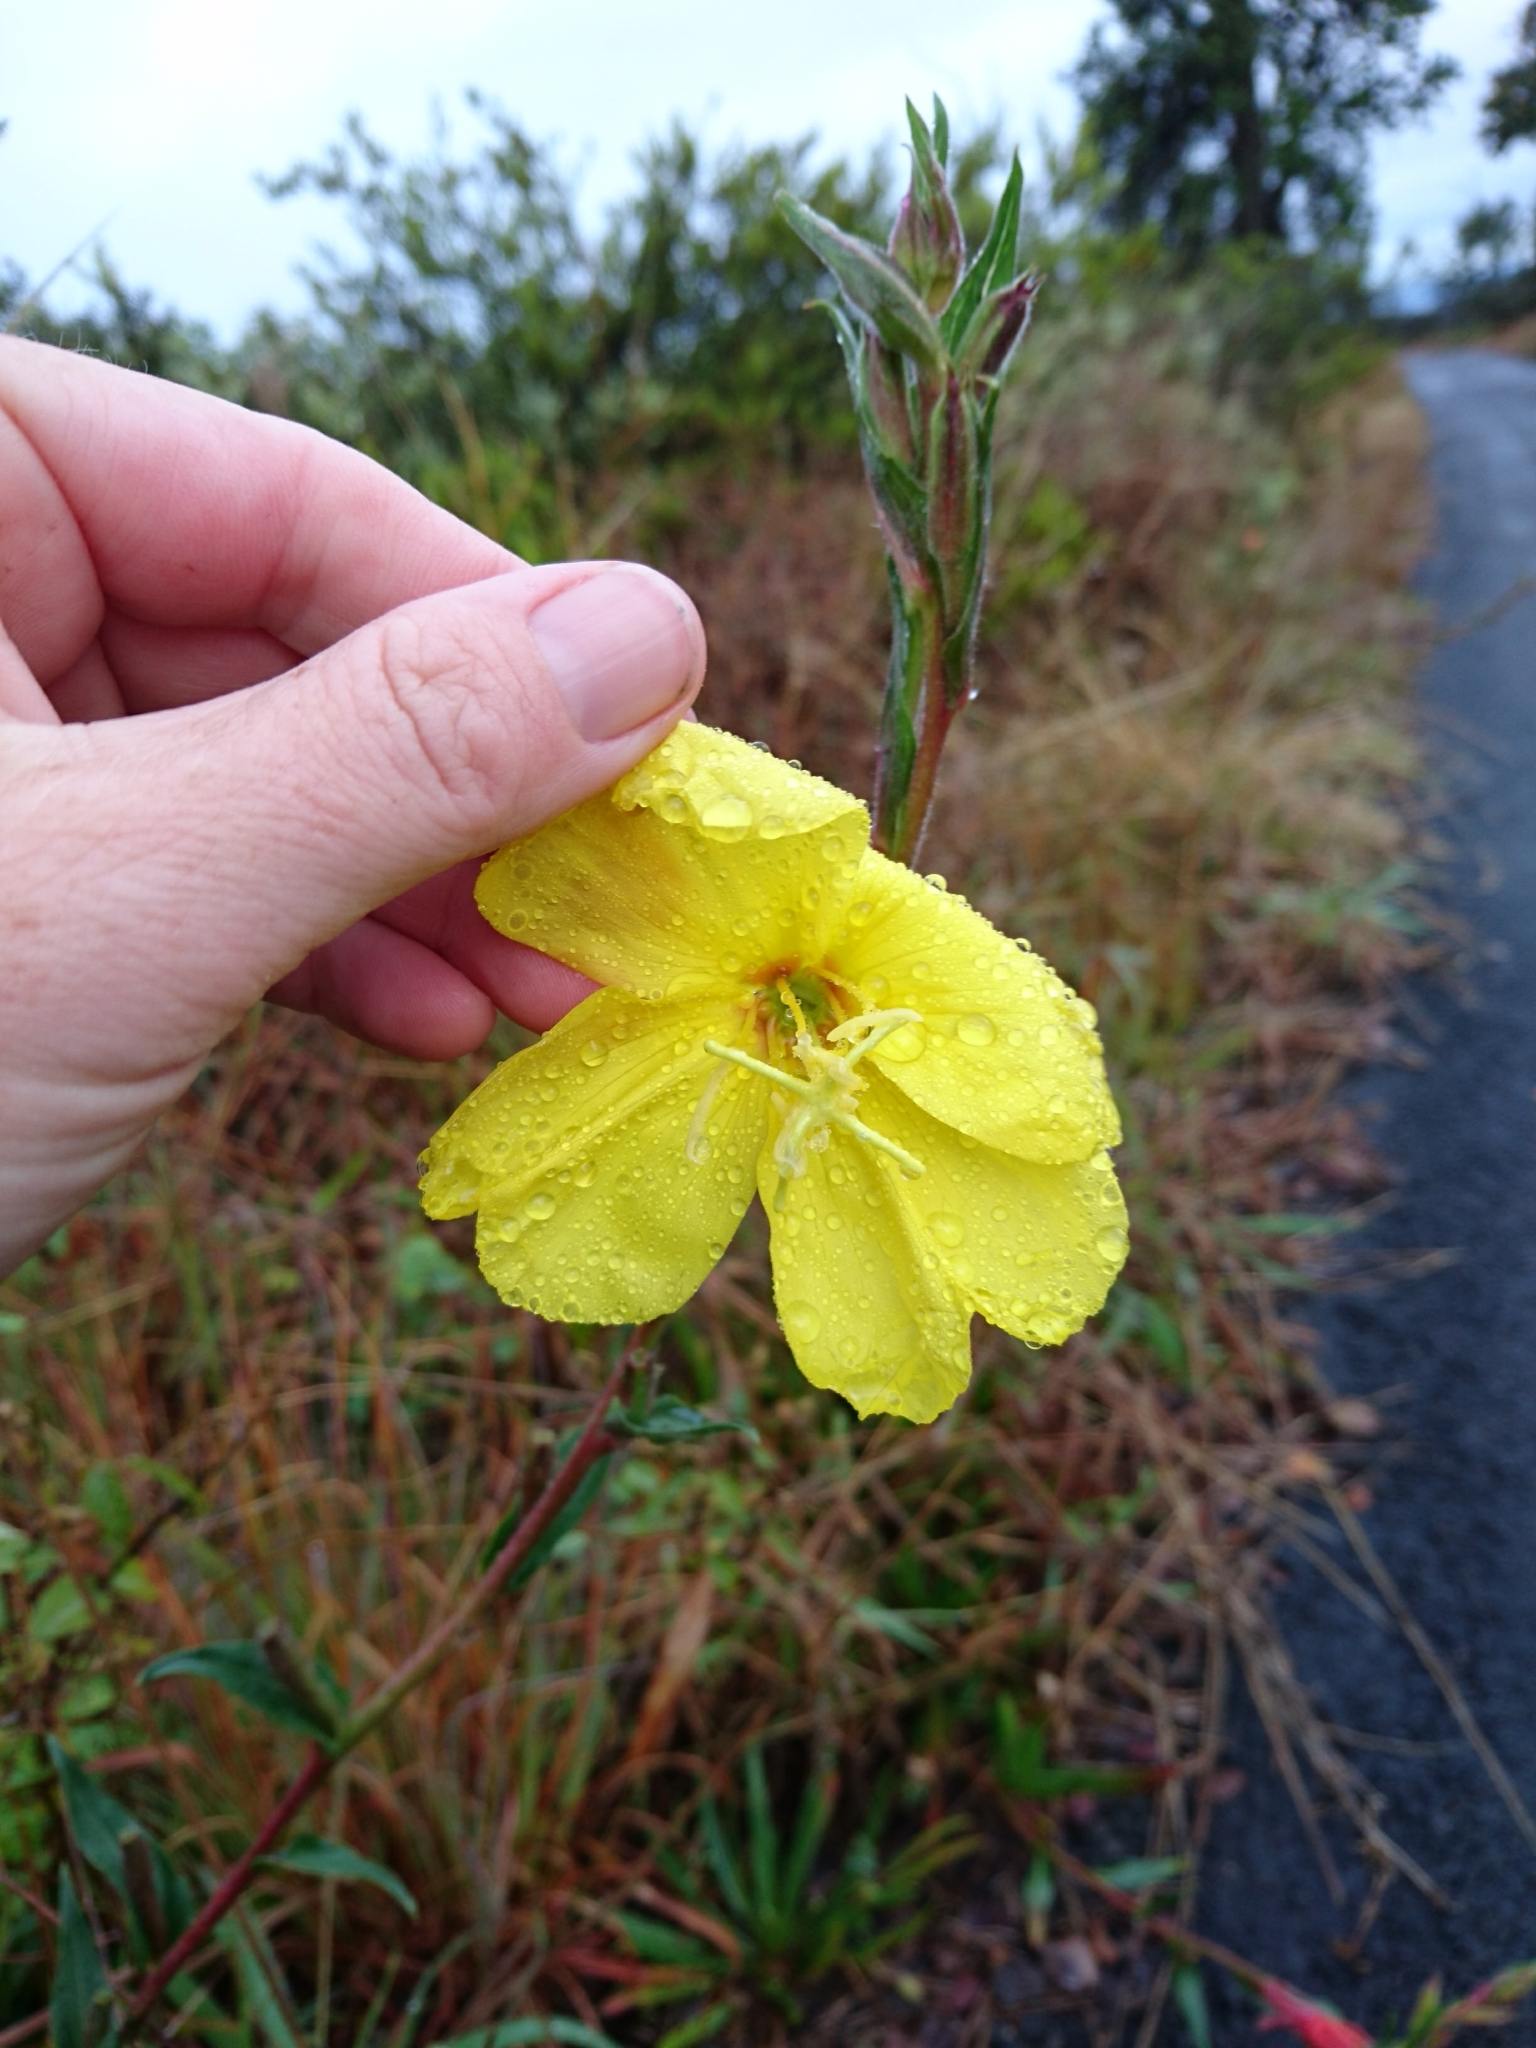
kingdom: Plantae
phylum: Tracheophyta
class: Magnoliopsida
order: Myrtales
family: Onagraceae
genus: Oenothera
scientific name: Oenothera stricta
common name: Fragrant evening-primrose
